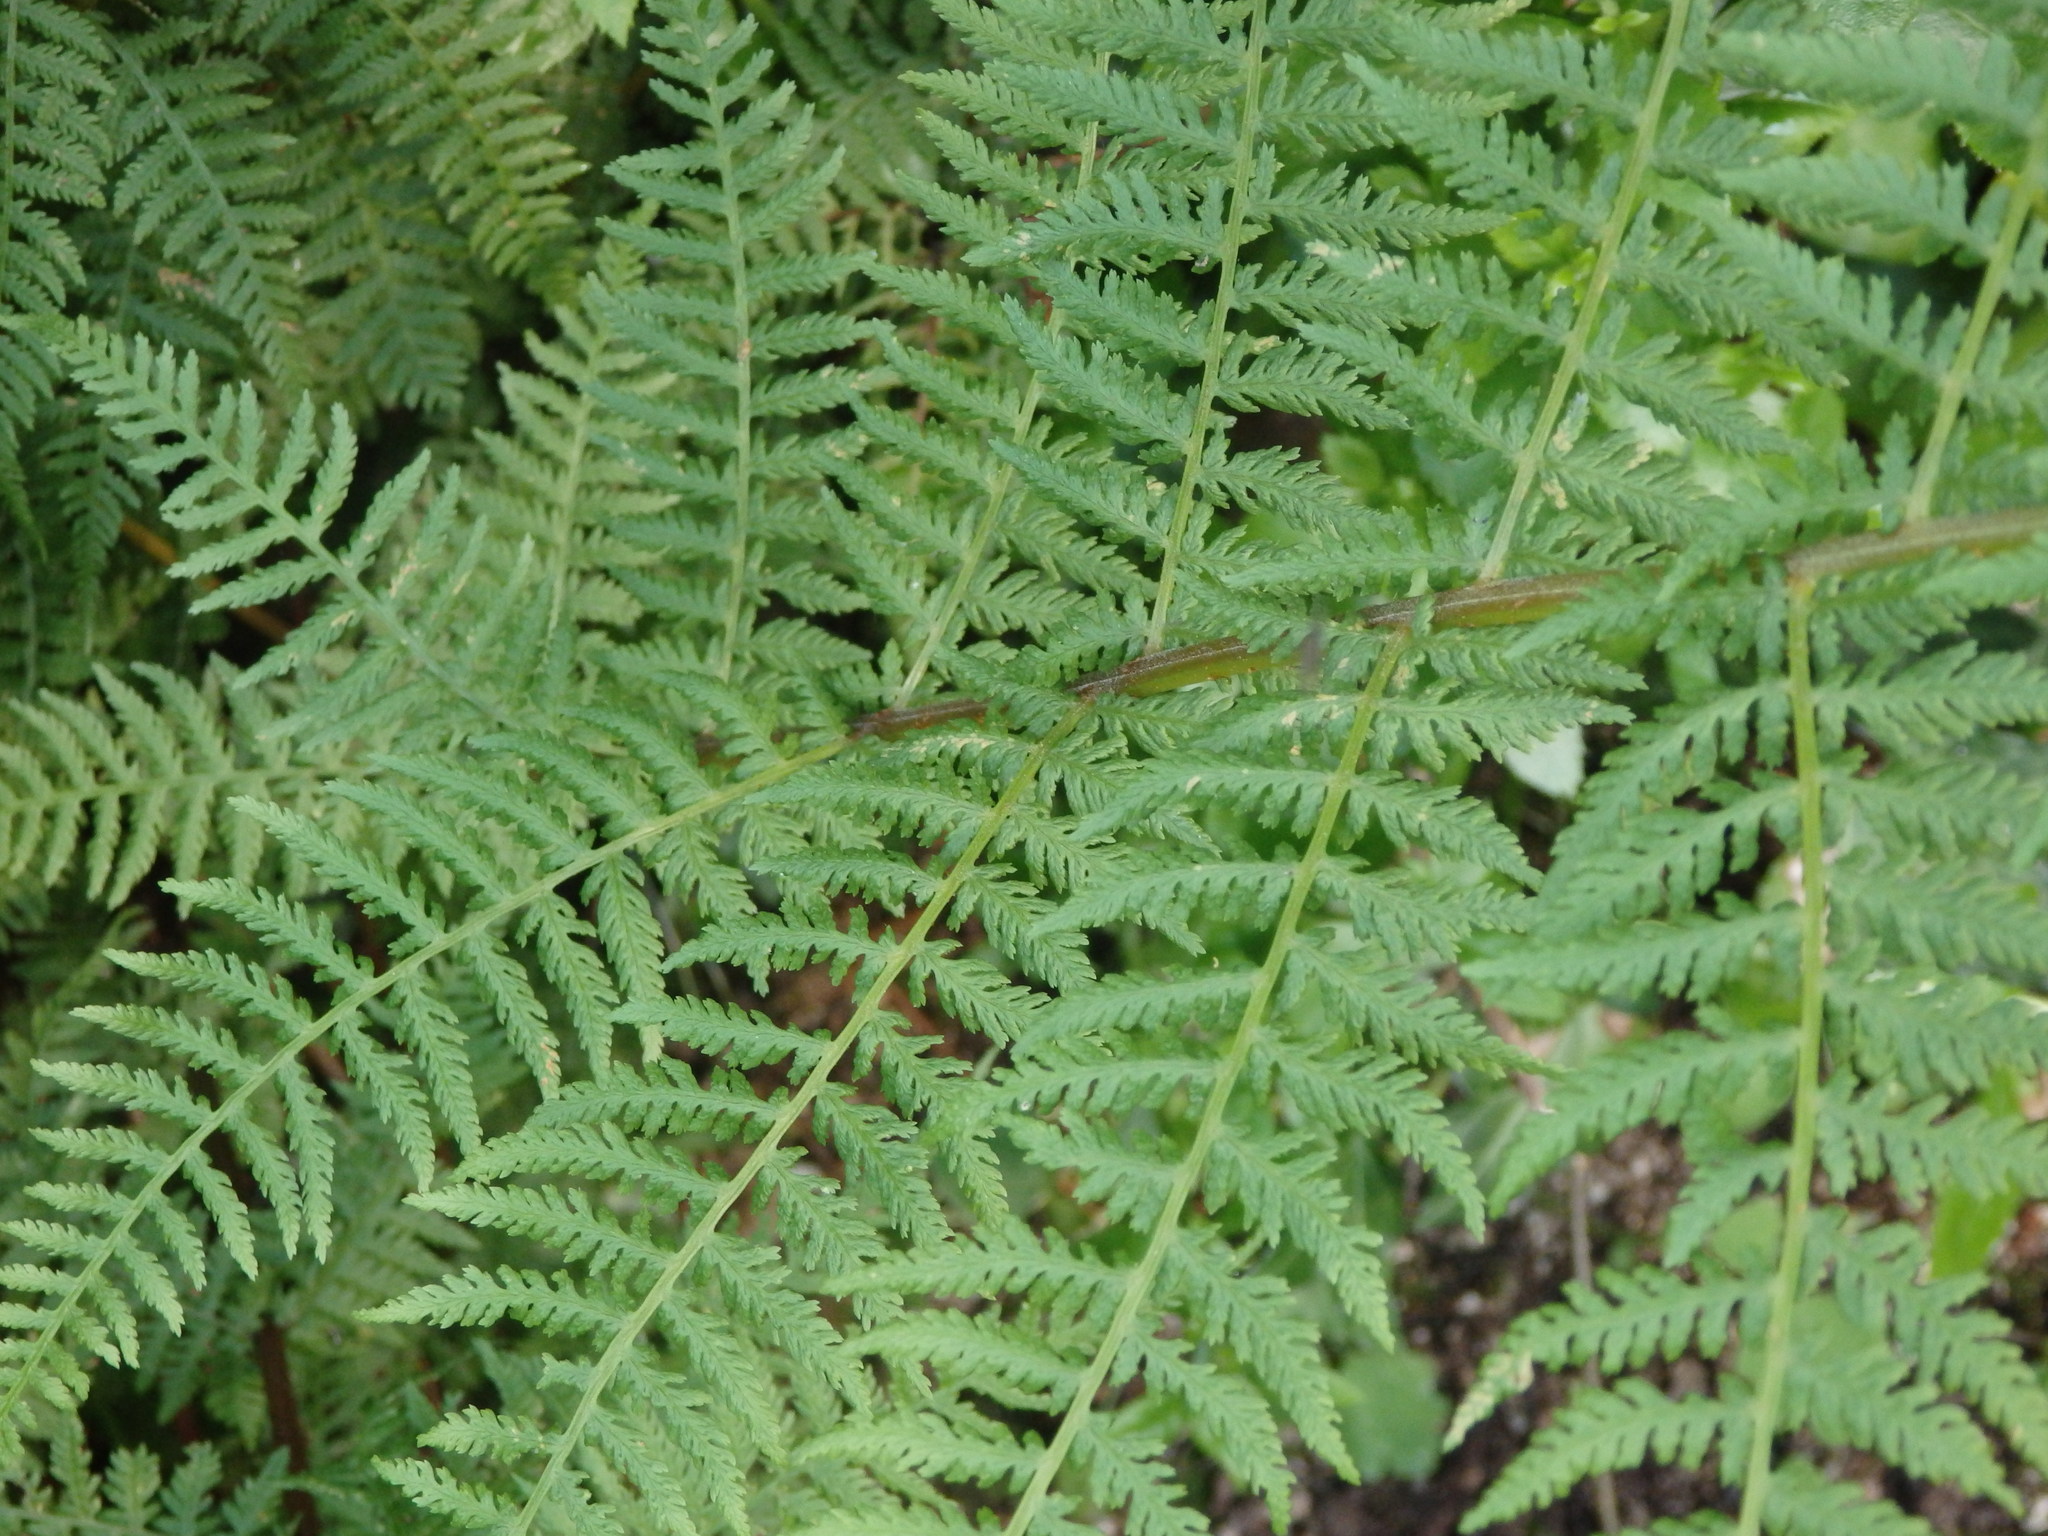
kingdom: Plantae
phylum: Tracheophyta
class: Polypodiopsida
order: Polypodiales
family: Athyriaceae
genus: Athyrium
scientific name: Athyrium filix-femina
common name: Lady fern
